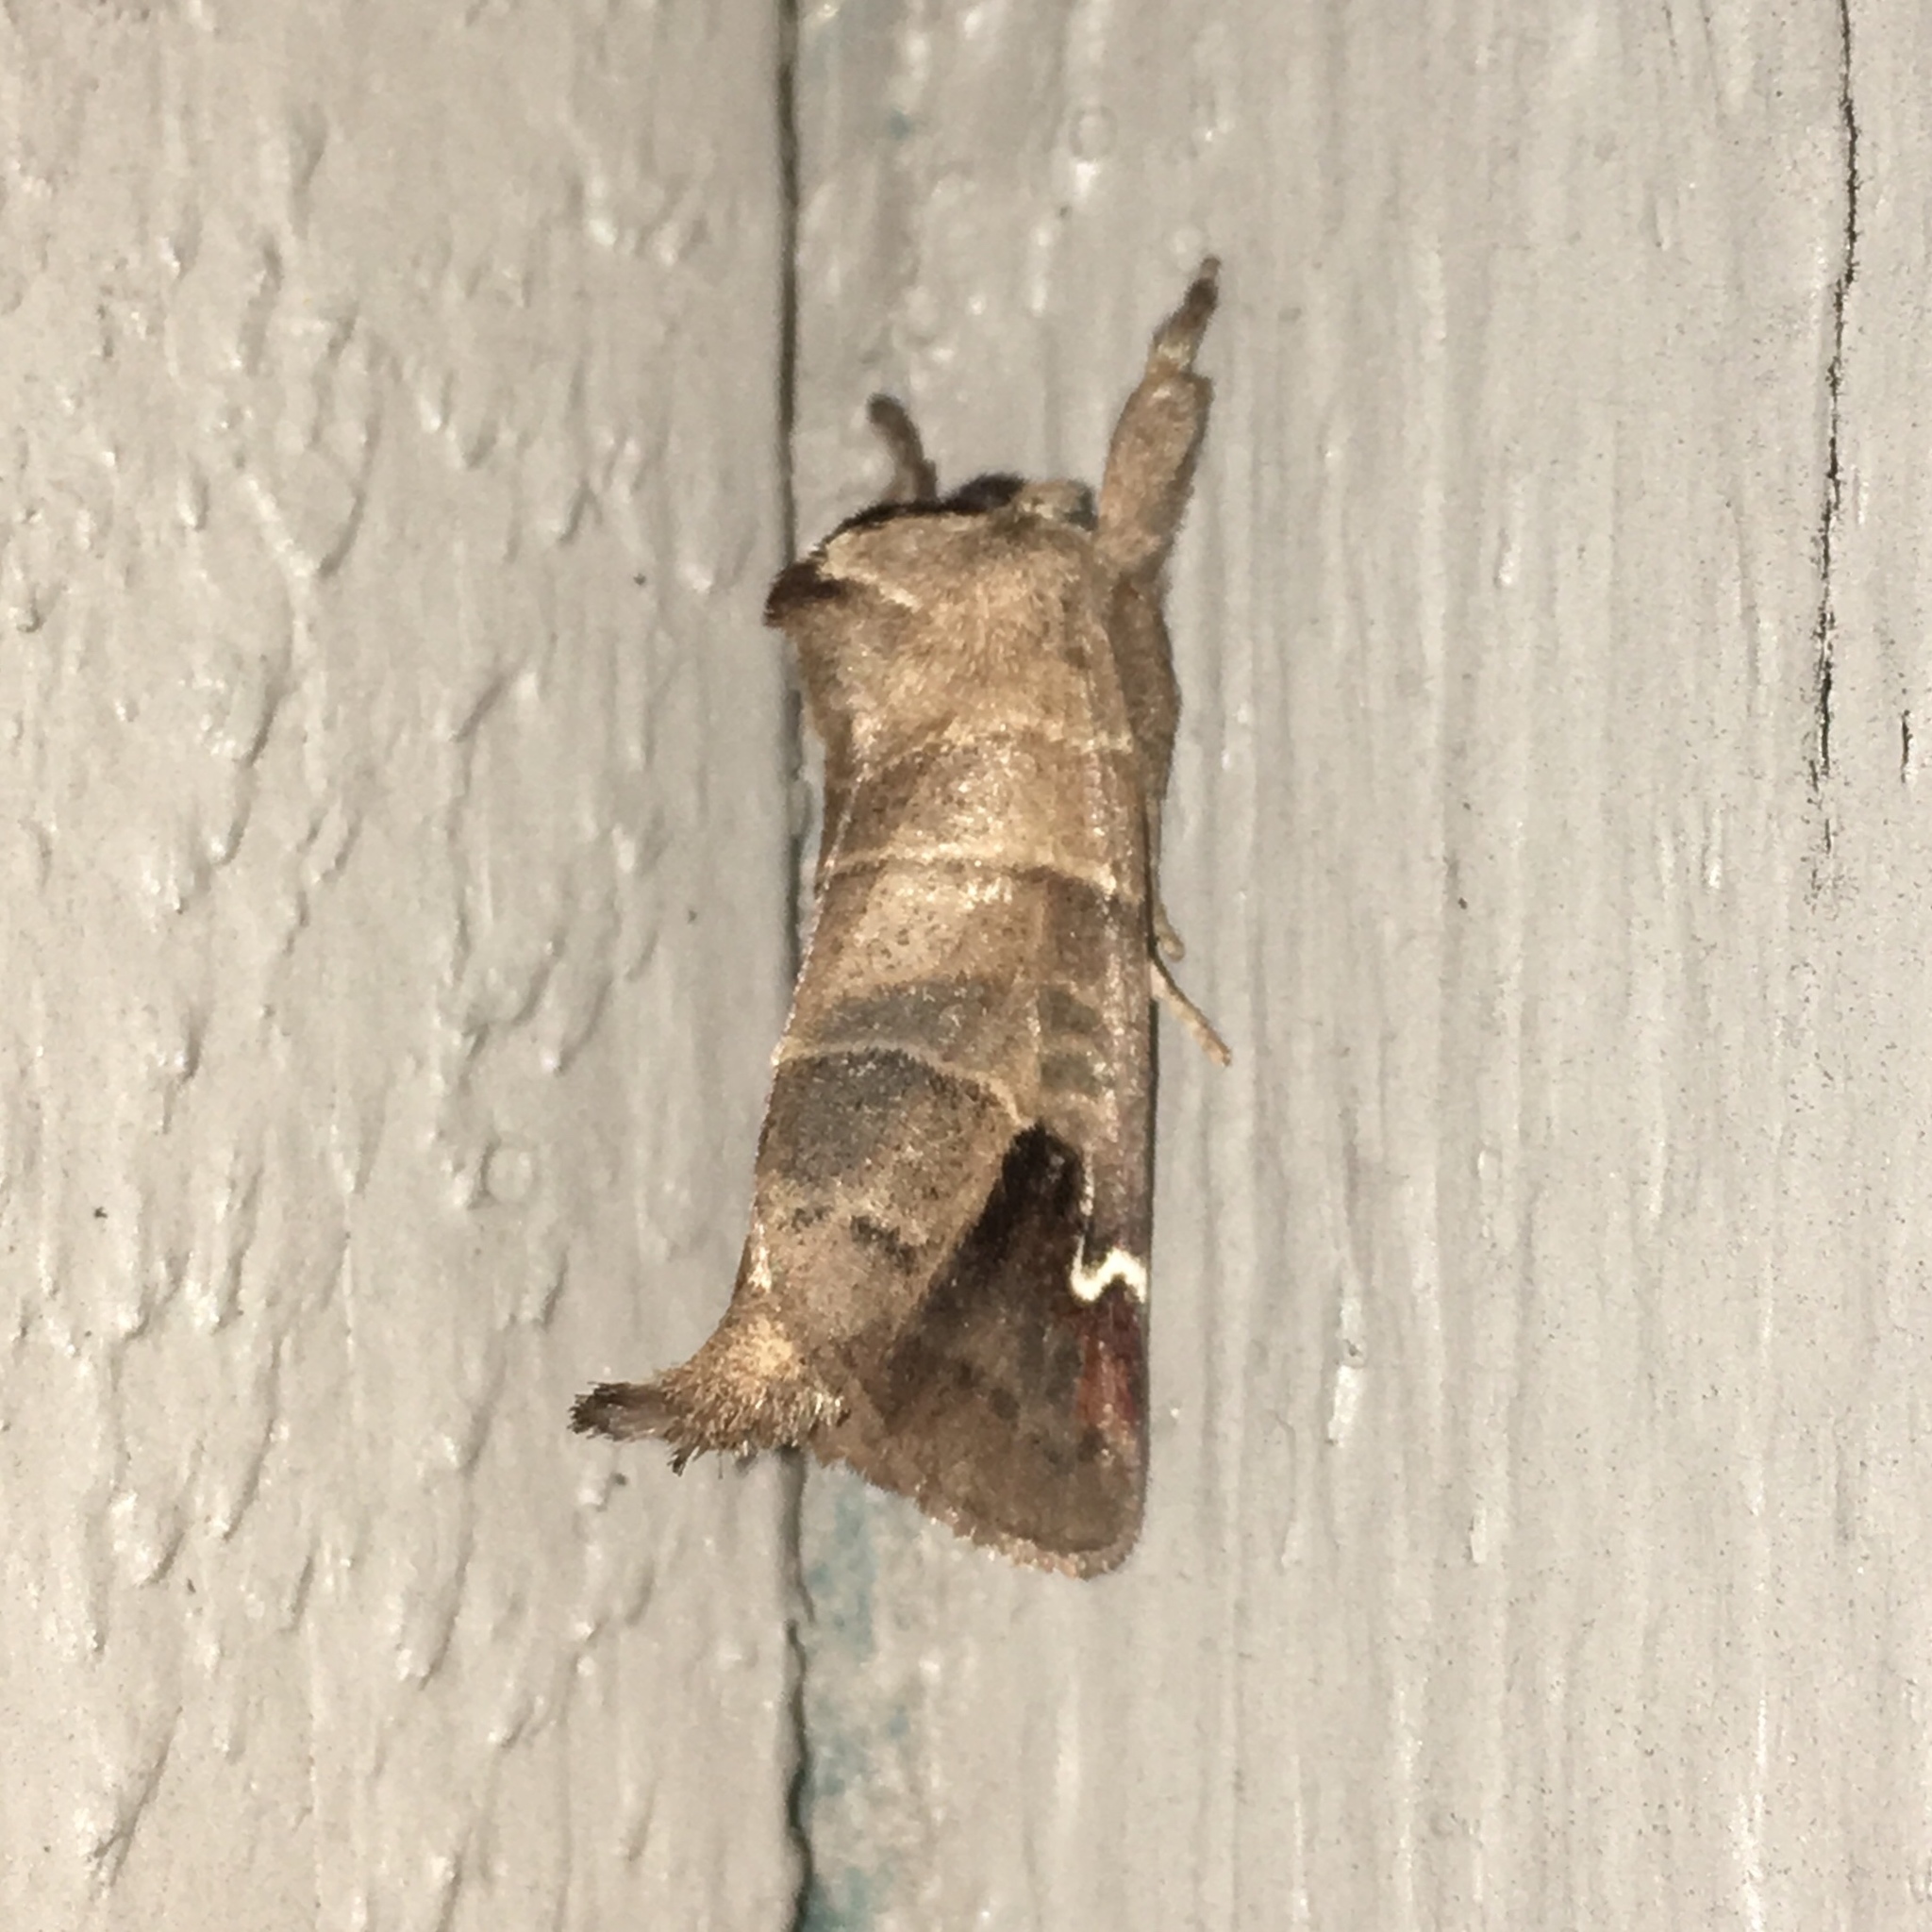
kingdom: Animalia
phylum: Arthropoda
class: Insecta
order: Lepidoptera
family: Notodontidae
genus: Clostera
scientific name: Clostera albosigma
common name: Sigmoid prominent
